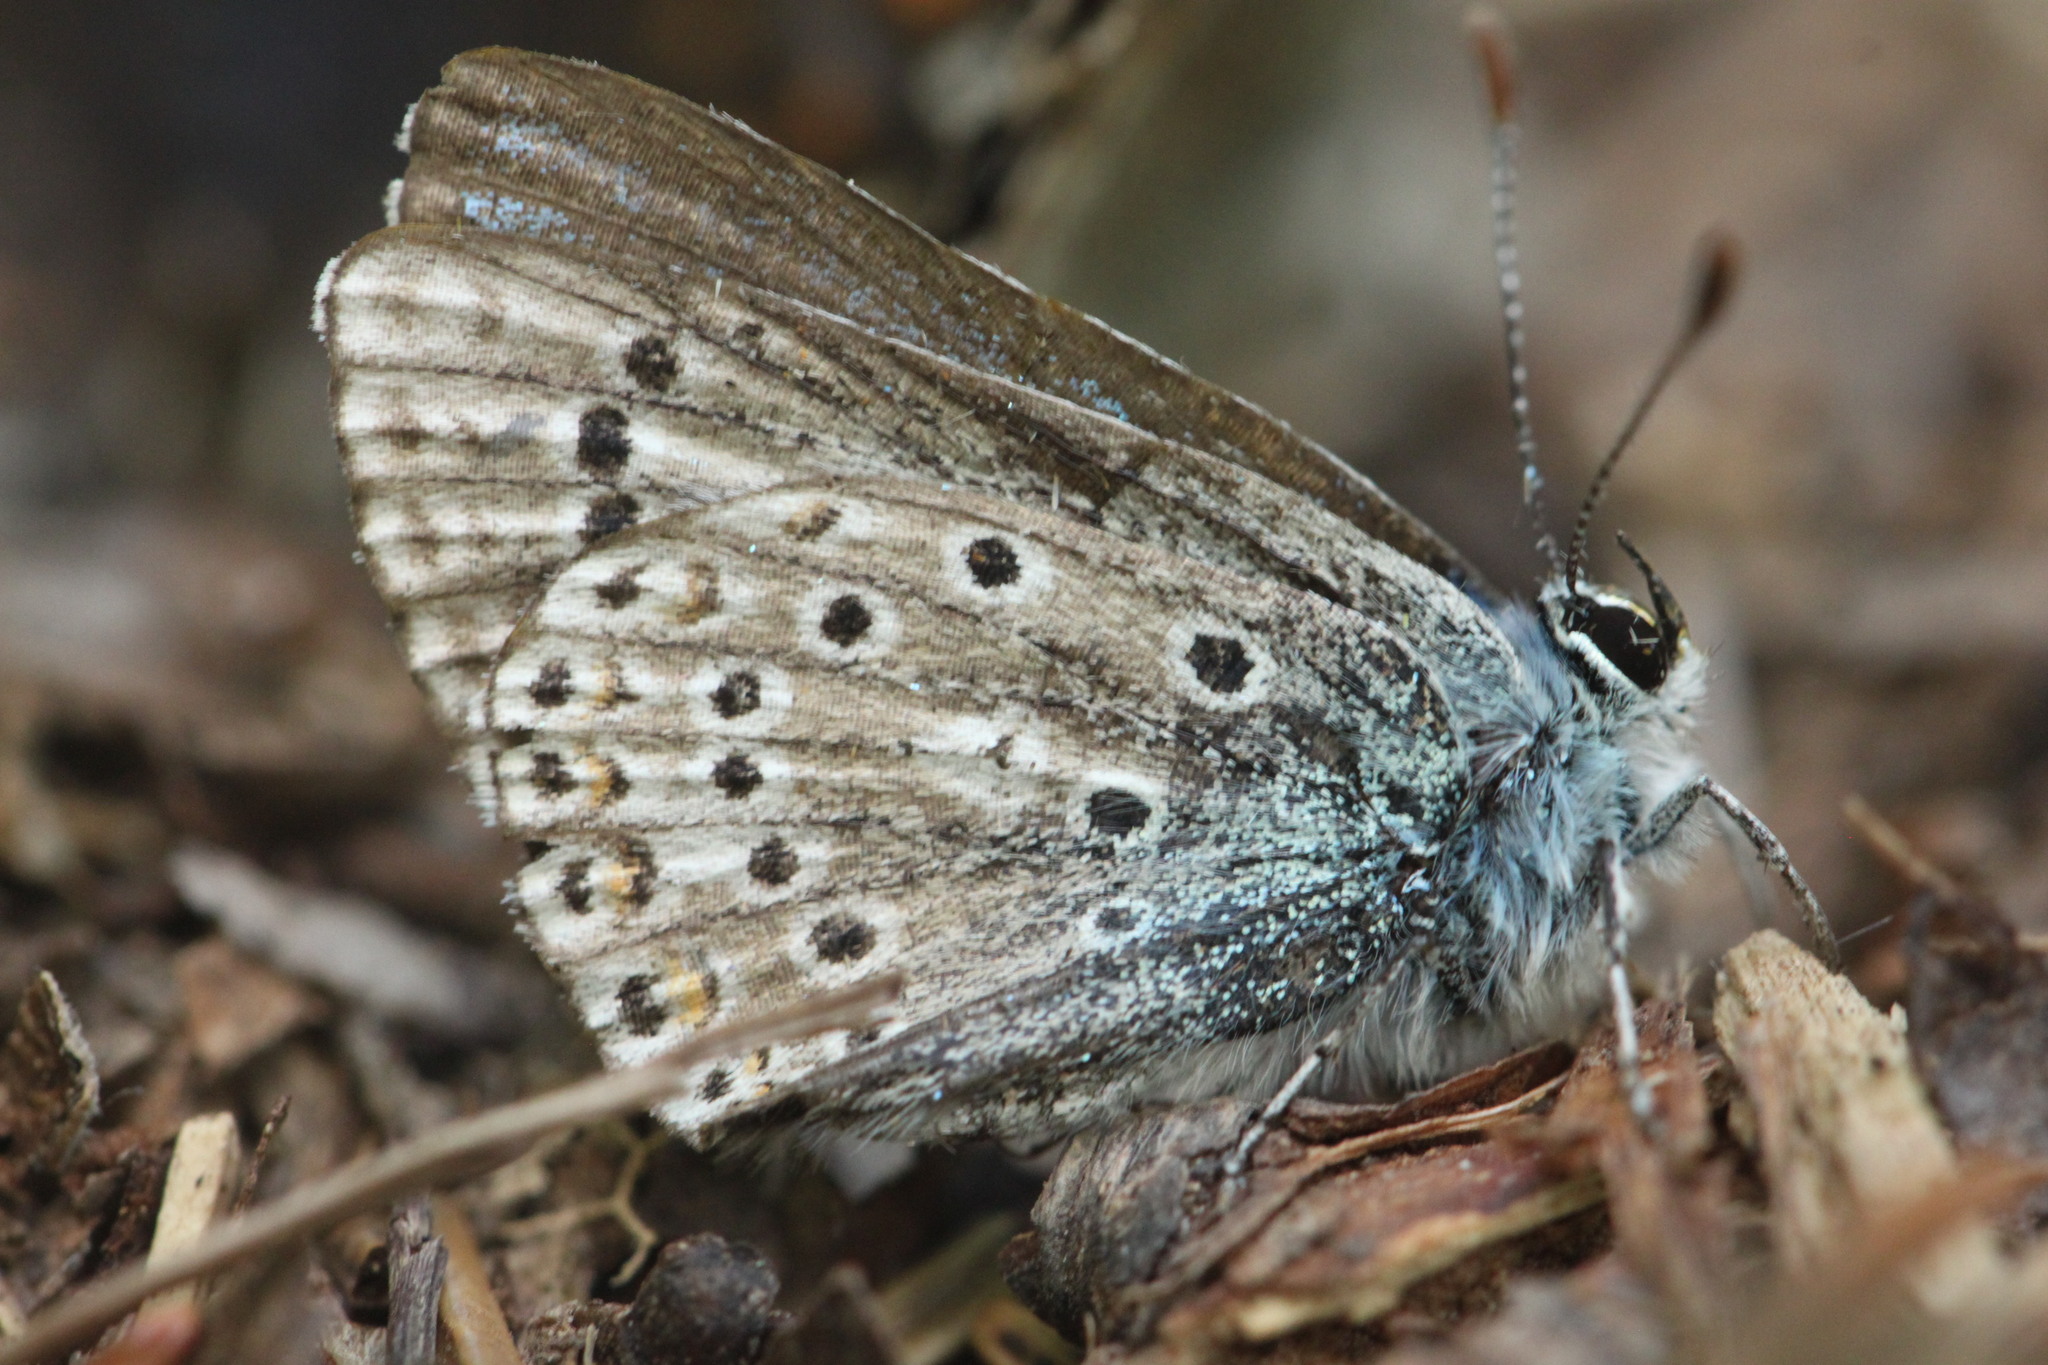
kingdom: Animalia
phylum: Arthropoda
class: Insecta
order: Lepidoptera
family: Lycaenidae
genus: Polyommatus
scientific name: Polyommatus eros
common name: Eros blue
